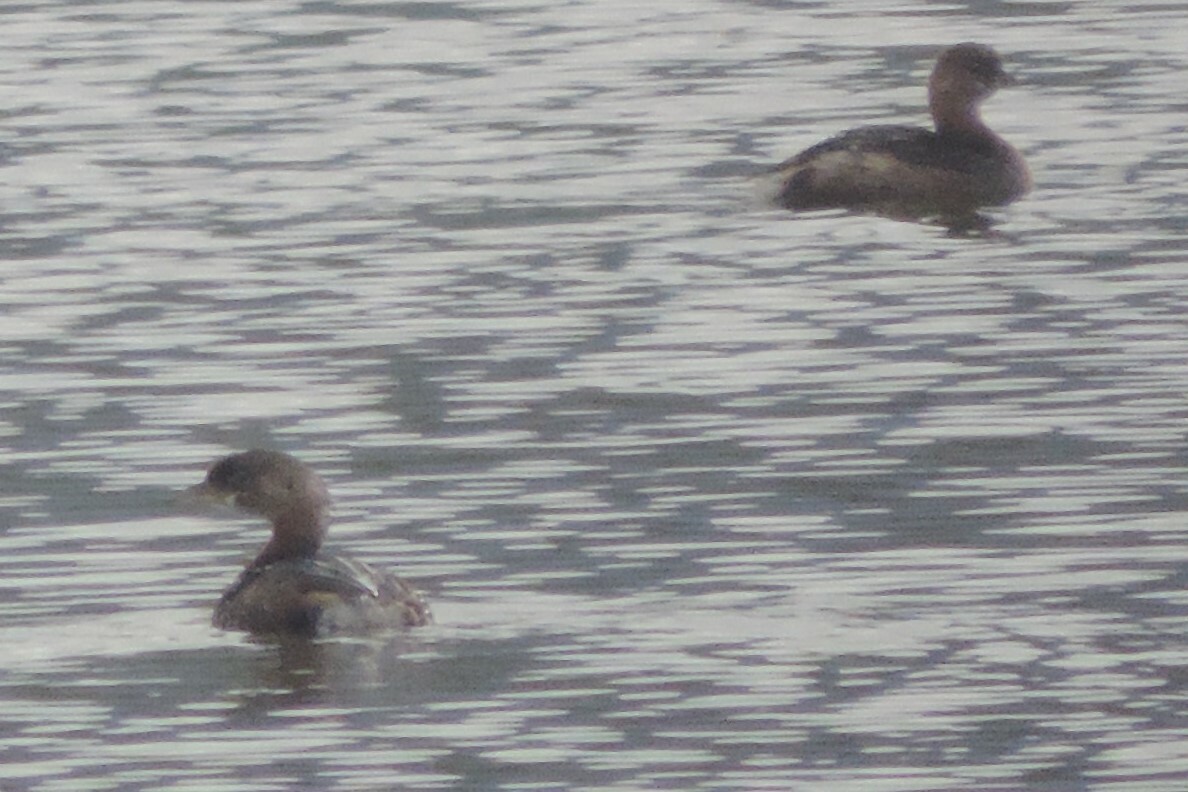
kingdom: Animalia
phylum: Chordata
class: Aves
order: Podicipediformes
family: Podicipedidae
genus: Podilymbus
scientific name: Podilymbus podiceps
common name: Pied-billed grebe
